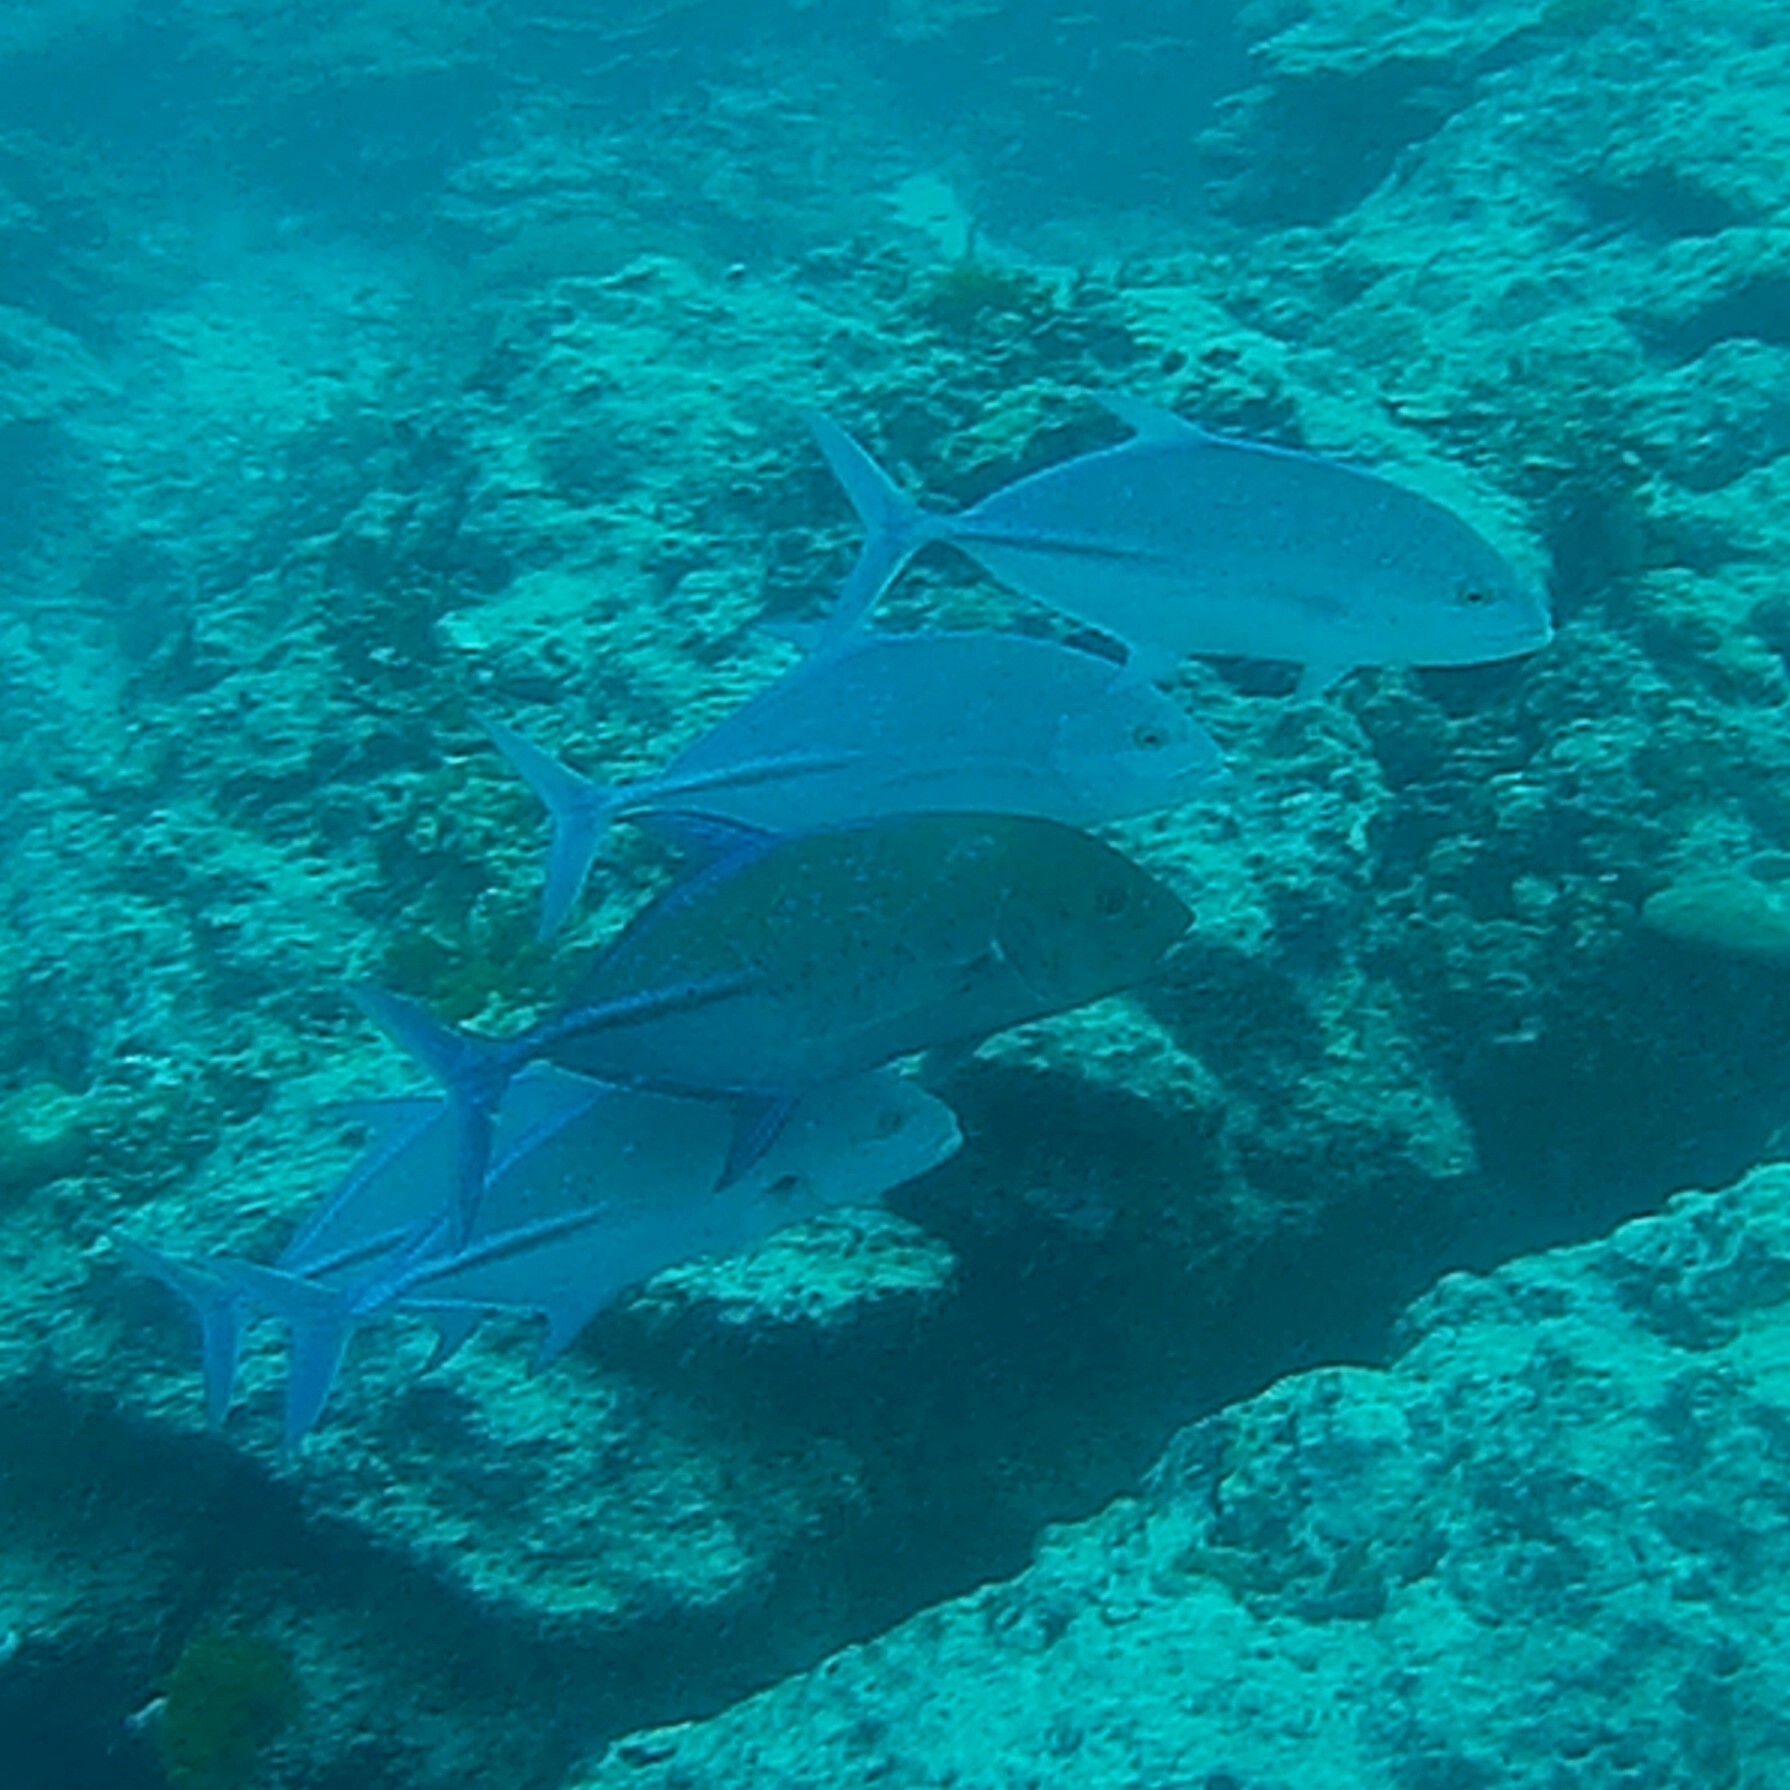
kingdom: Animalia
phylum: Chordata
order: Perciformes
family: Carangidae
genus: Caranx
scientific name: Caranx melampygus
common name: Bluefin trevally
